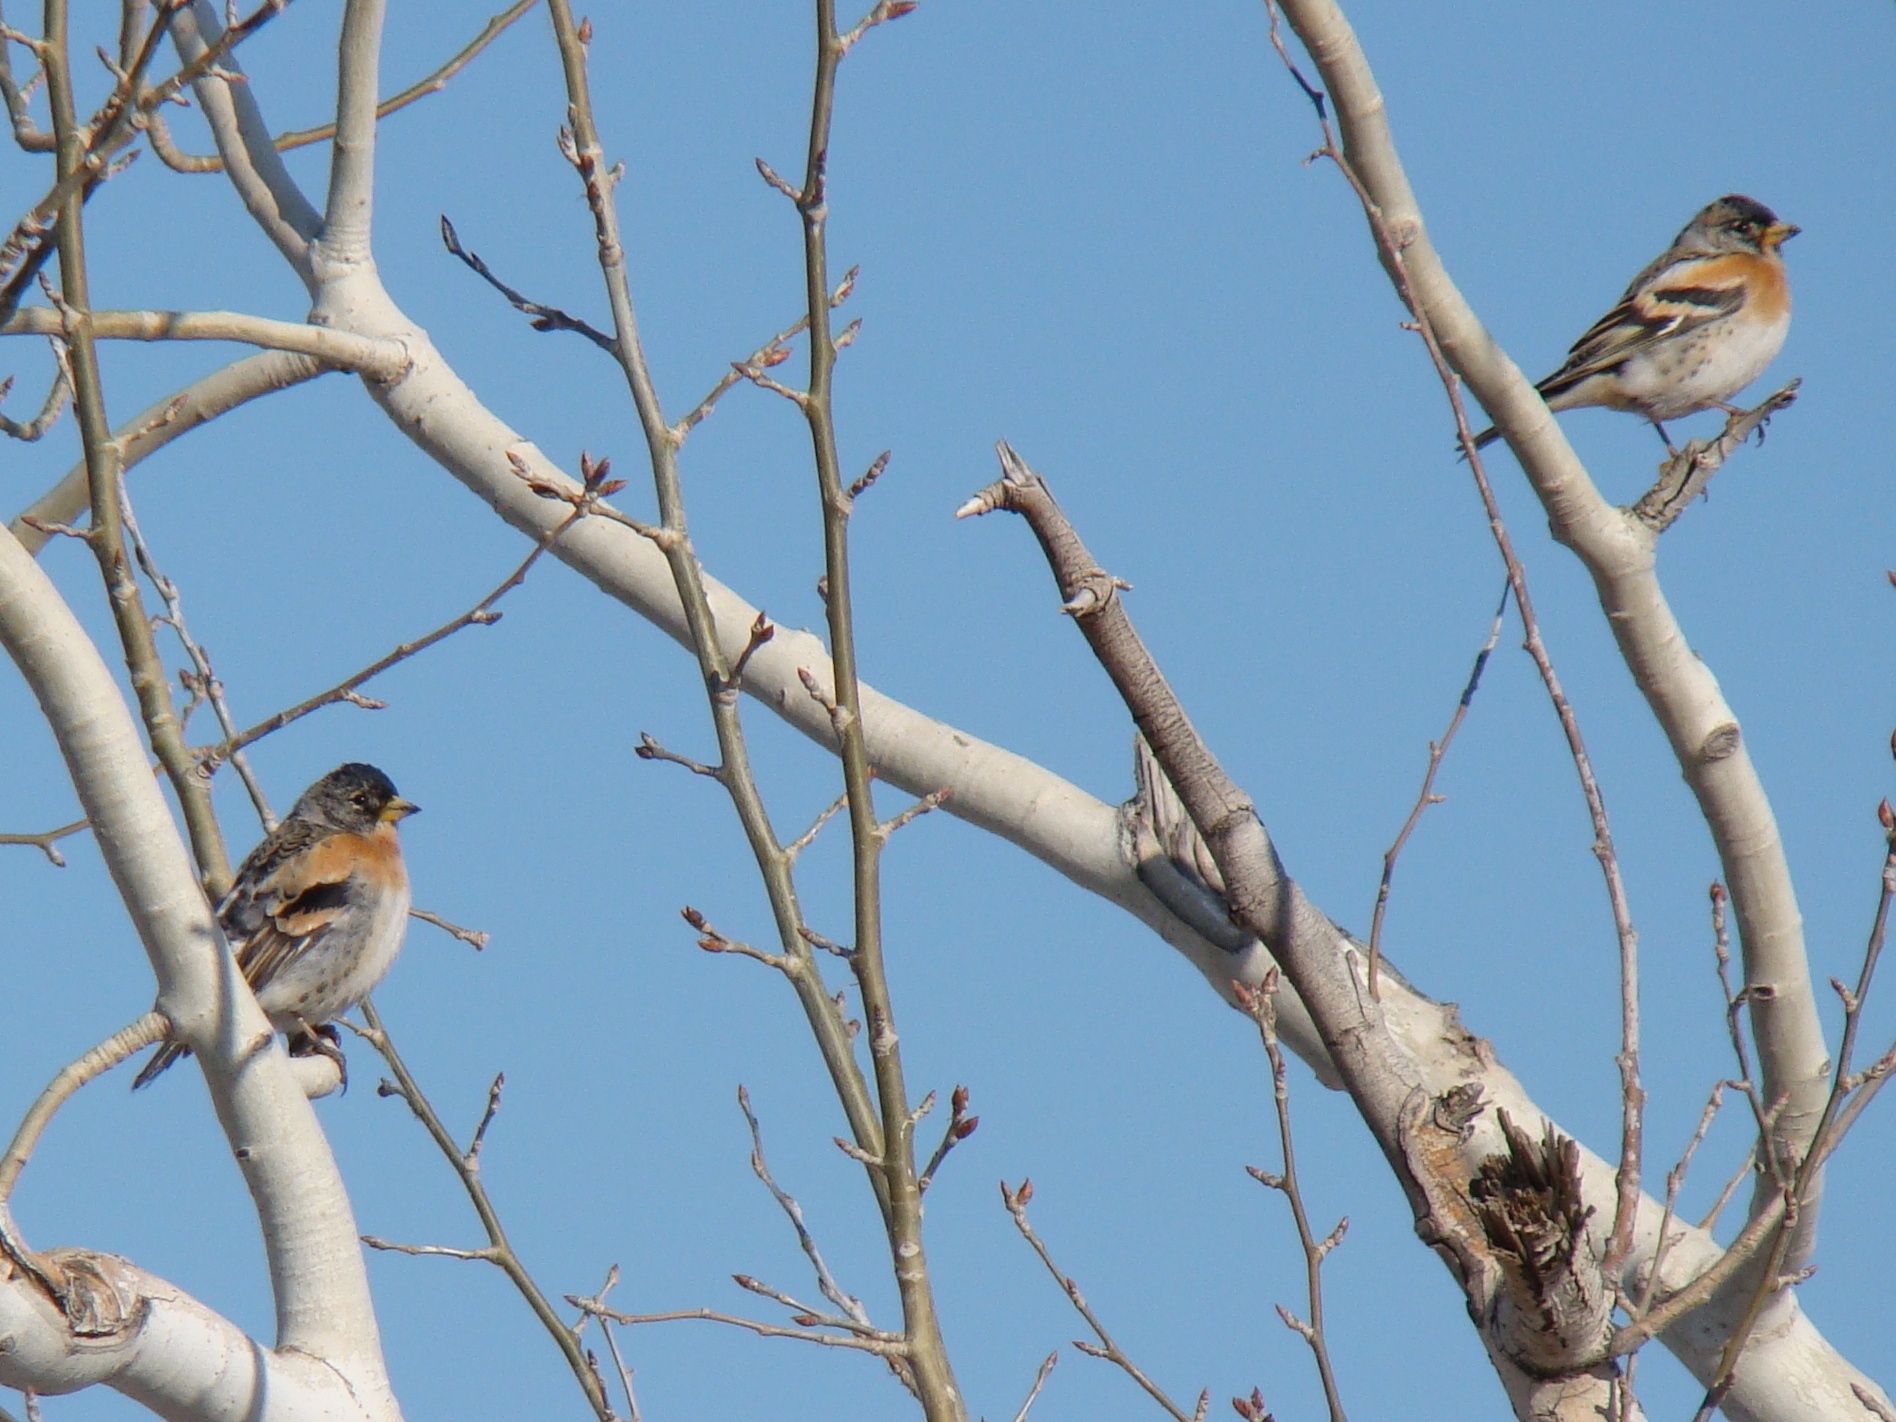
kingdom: Animalia
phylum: Chordata
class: Aves
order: Passeriformes
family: Fringillidae
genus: Fringilla
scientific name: Fringilla montifringilla
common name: Brambling
